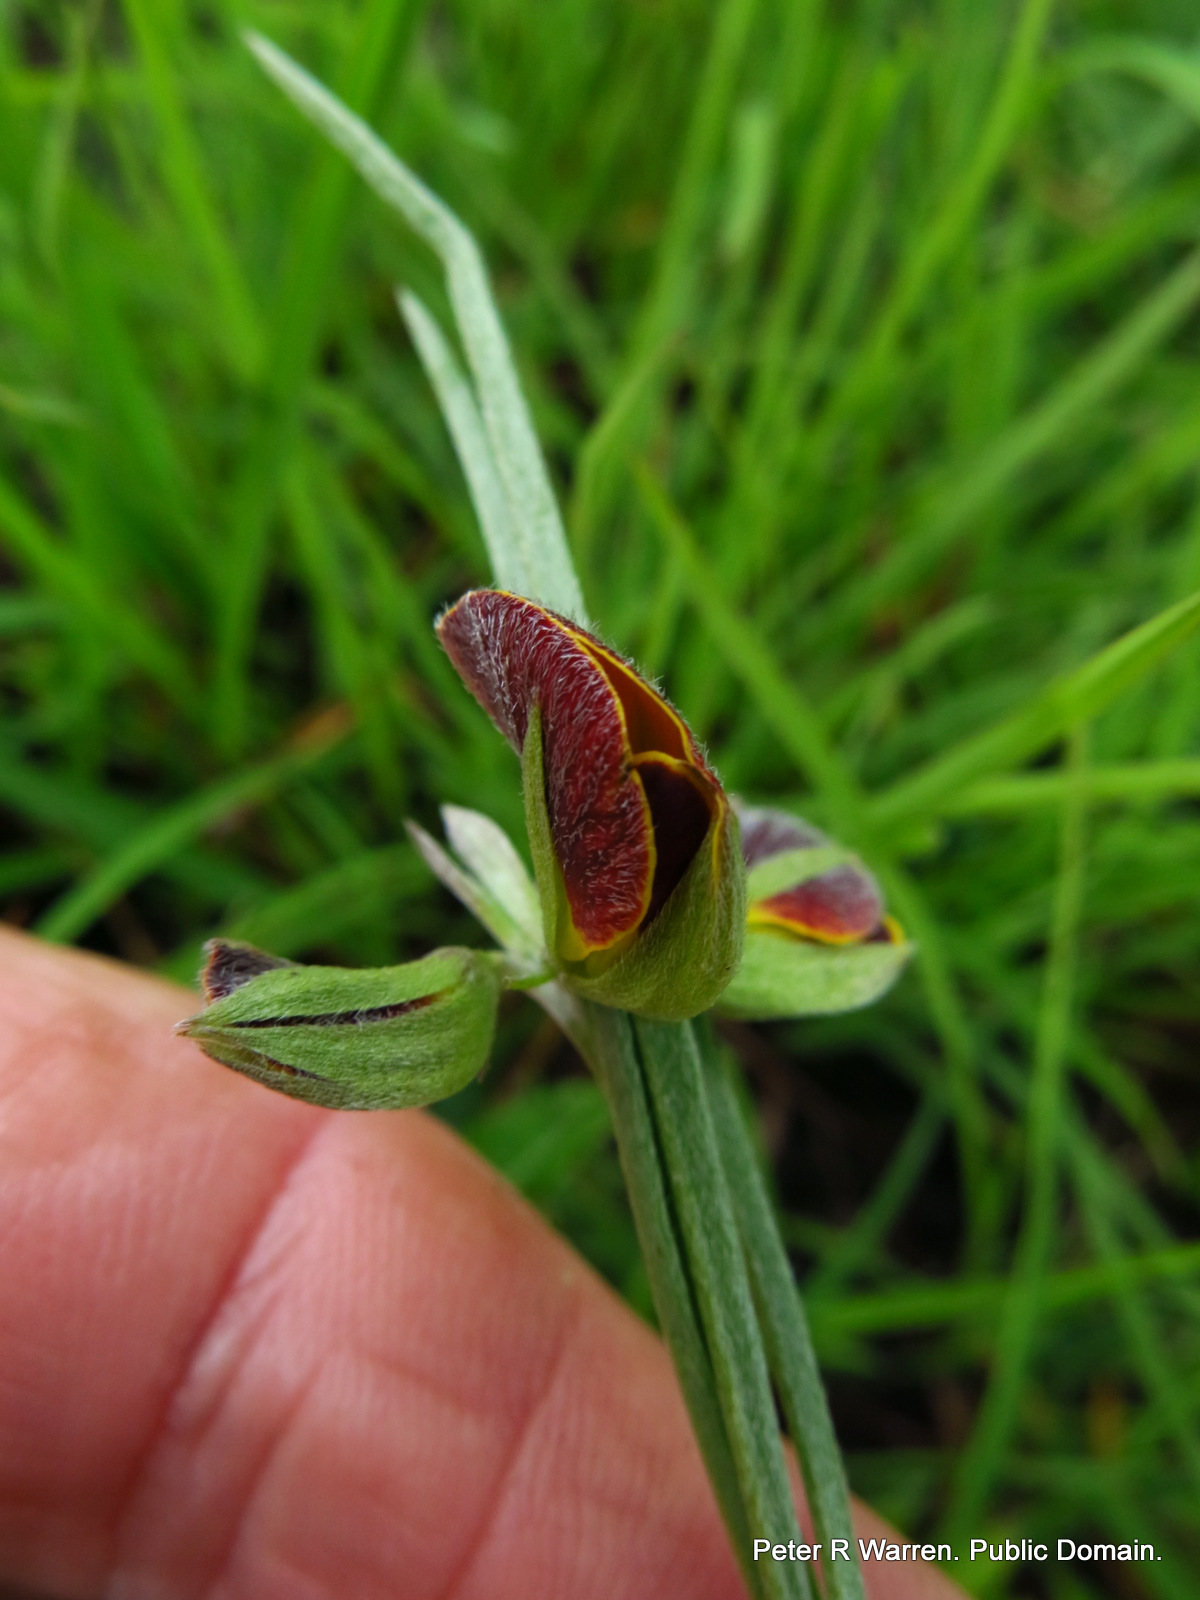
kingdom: Plantae
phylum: Tracheophyta
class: Magnoliopsida
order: Fabales
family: Fabaceae
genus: Argyrolobium
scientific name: Argyrolobium tuberosum
